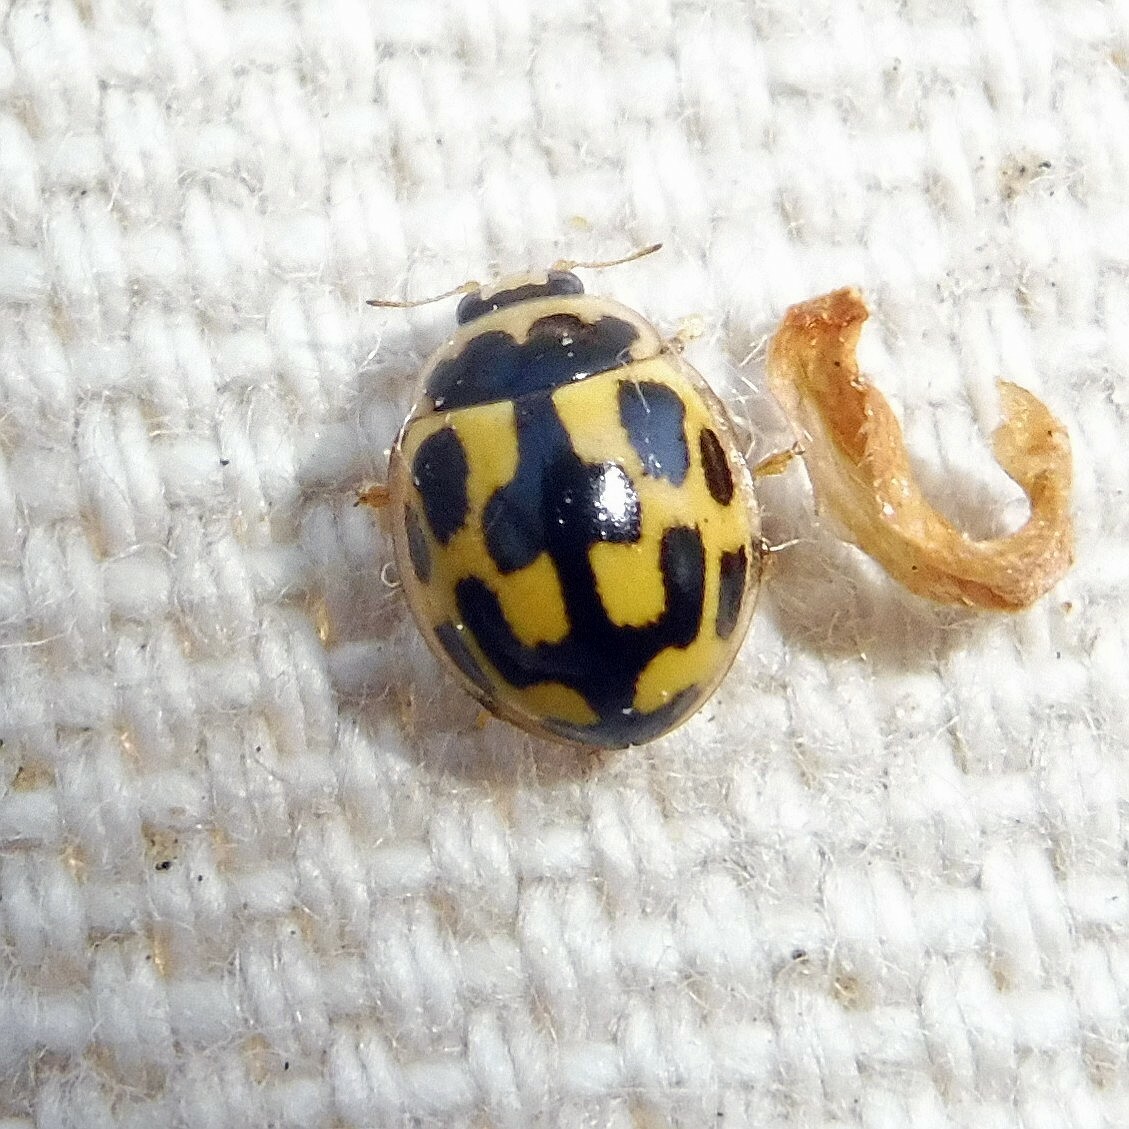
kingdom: Animalia
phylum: Arthropoda
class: Insecta
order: Coleoptera
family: Coccinellidae
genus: Propylaea
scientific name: Propylaea quatuordecimpunctata
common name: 14-spotted ladybird beetle
